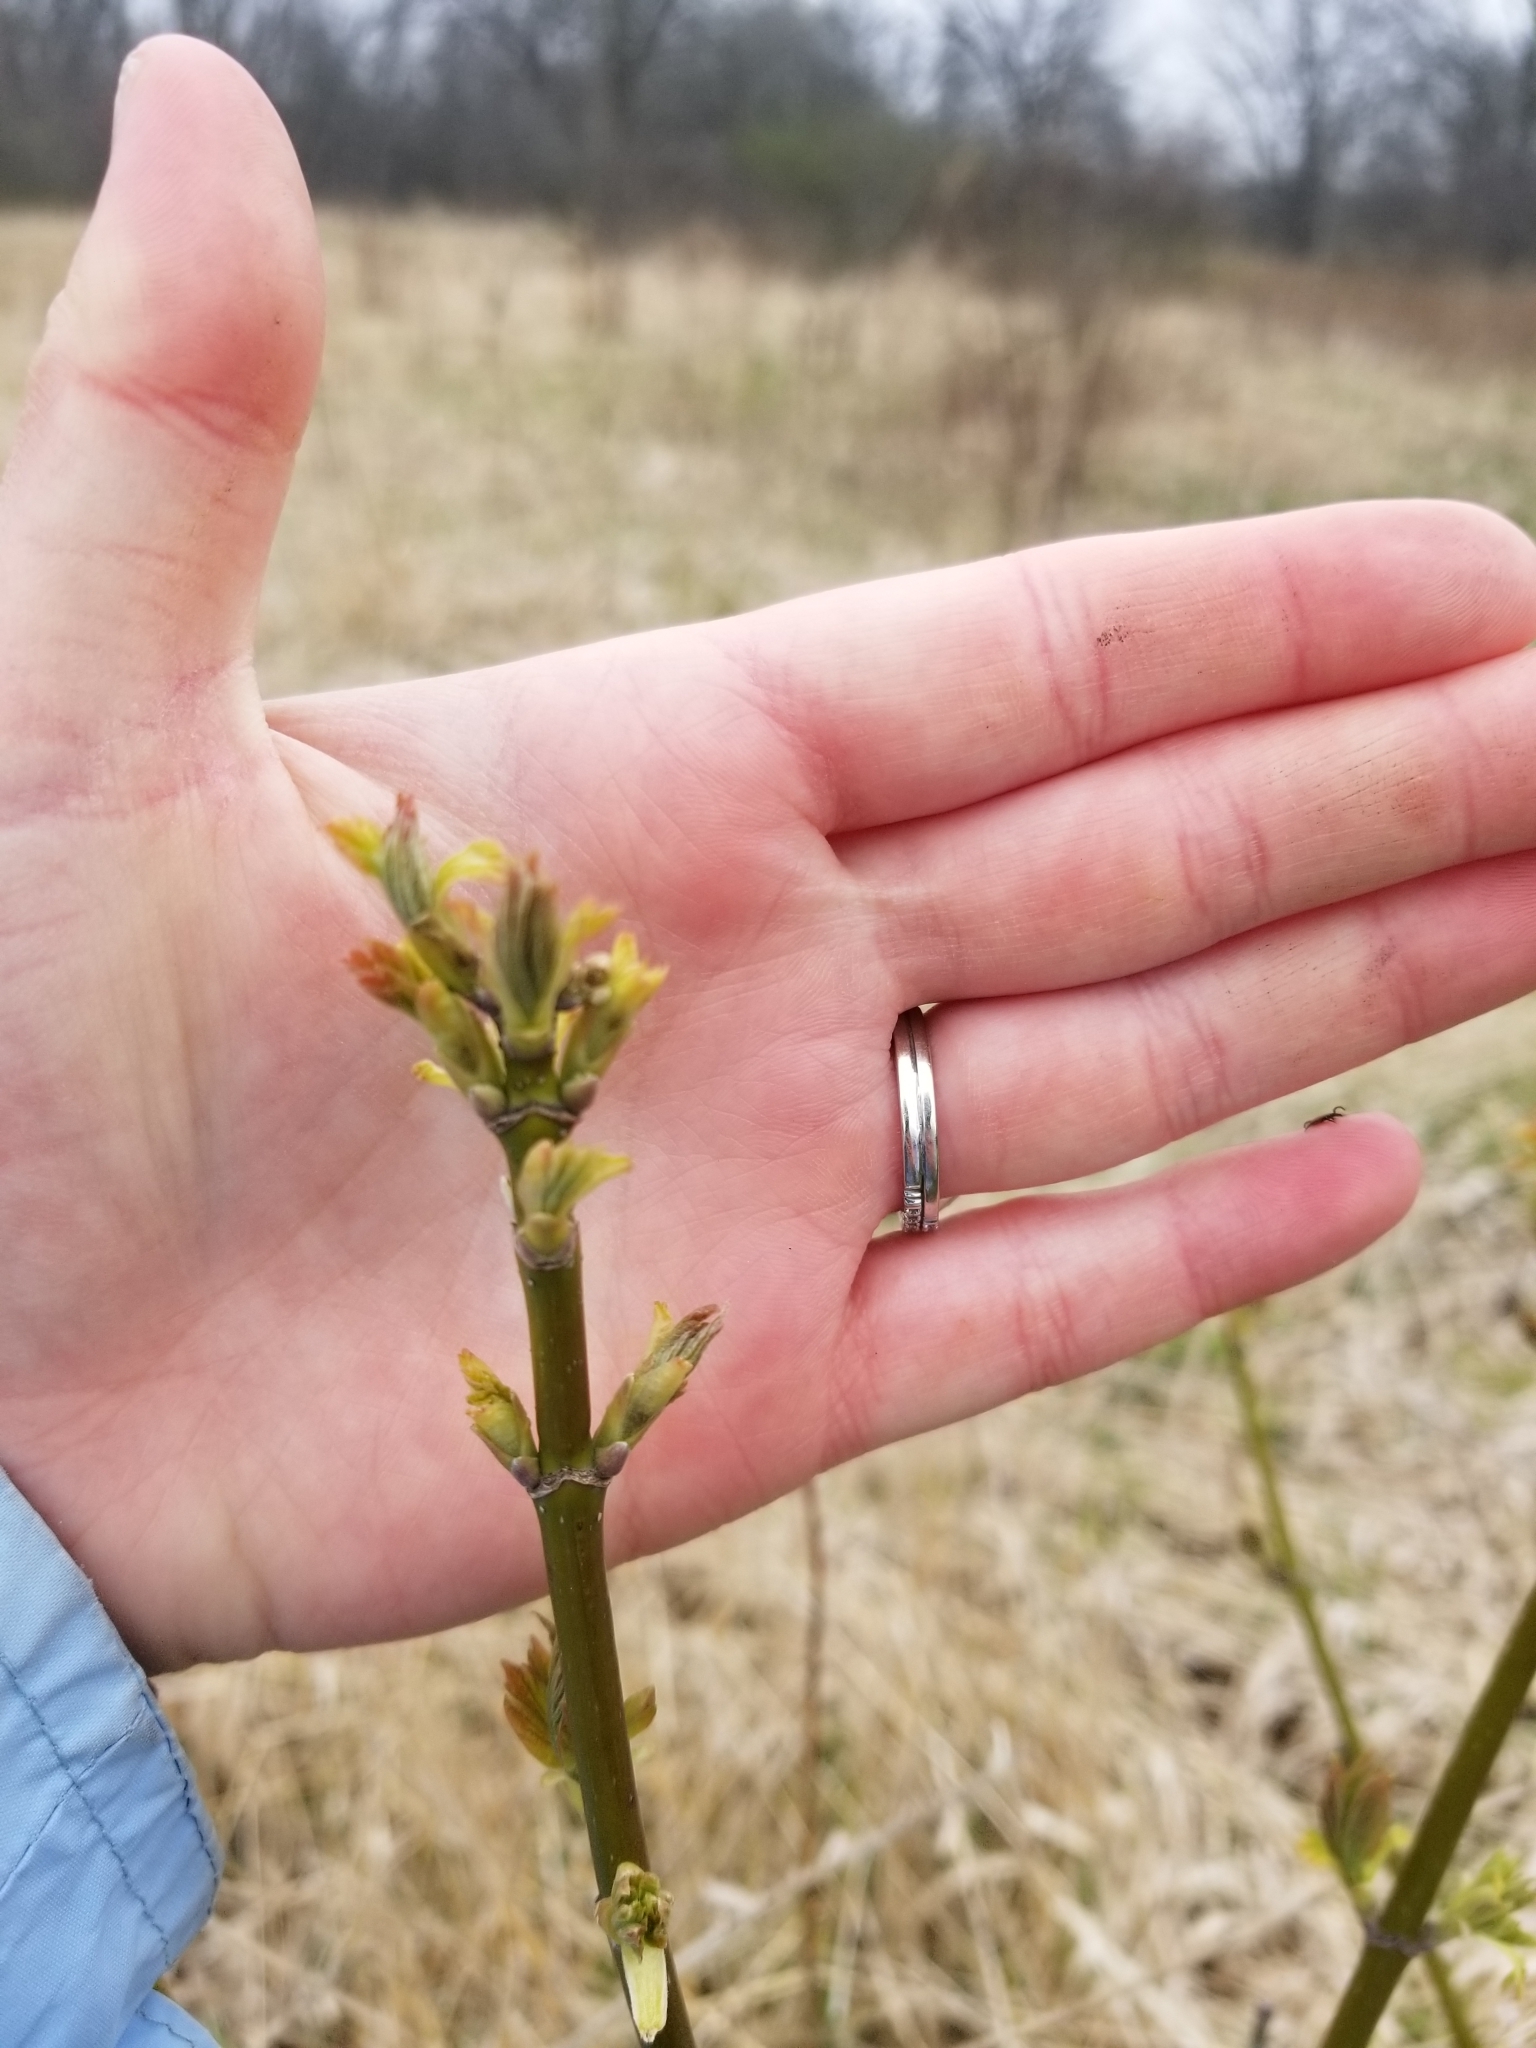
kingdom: Plantae
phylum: Tracheophyta
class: Magnoliopsida
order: Sapindales
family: Sapindaceae
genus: Acer
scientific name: Acer negundo
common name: Ashleaf maple
